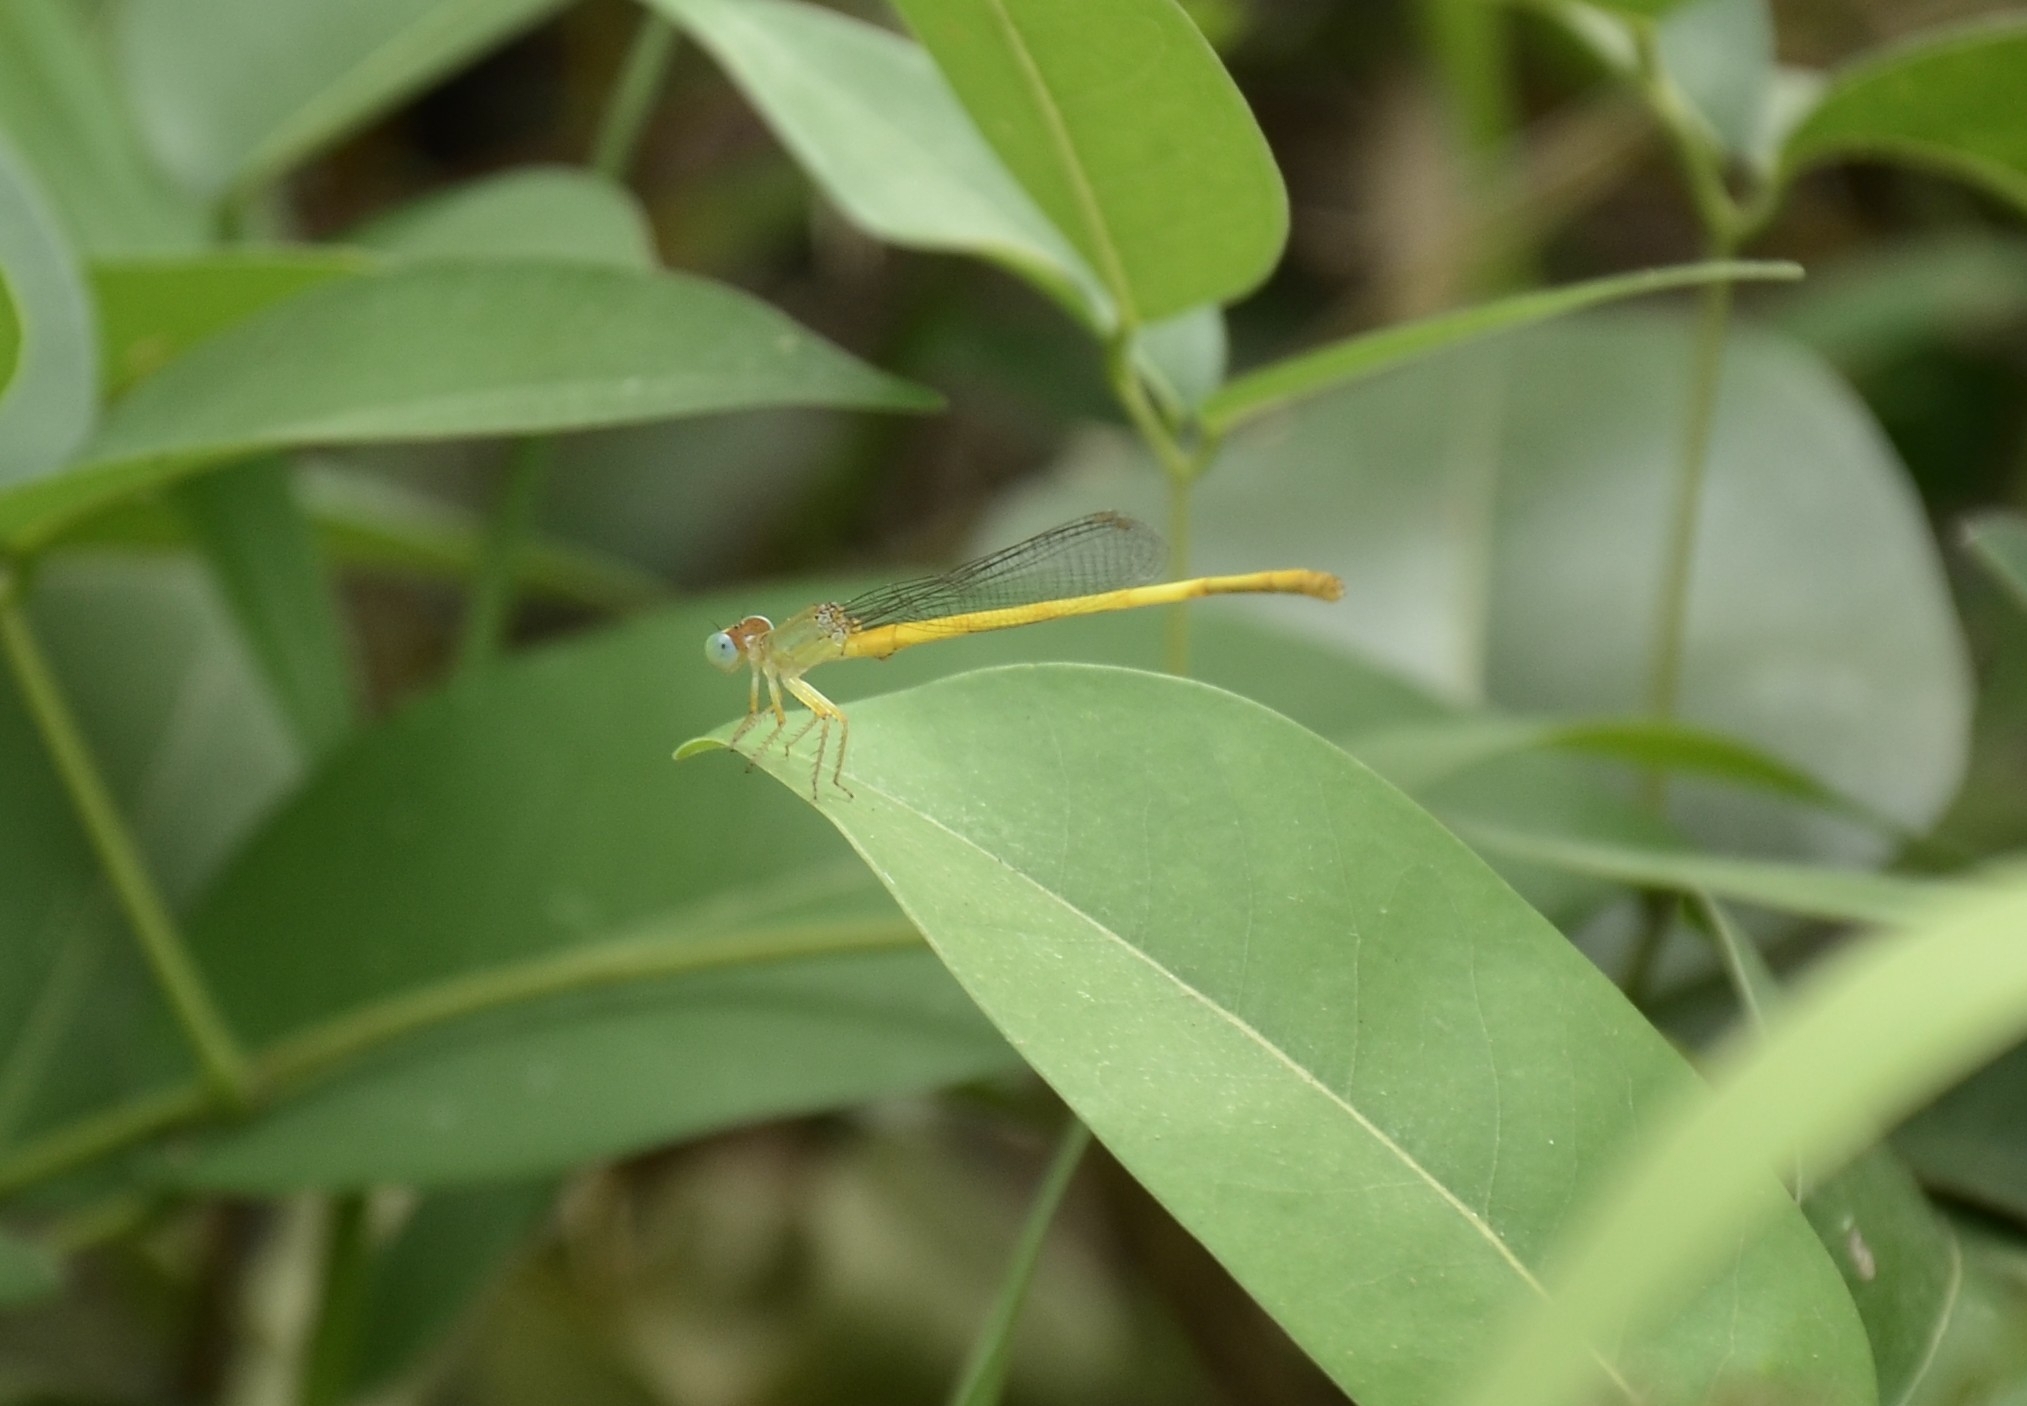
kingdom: Animalia
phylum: Arthropoda
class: Insecta
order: Odonata
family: Coenagrionidae
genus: Ceriagrion
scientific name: Ceriagrion coromandelianum
